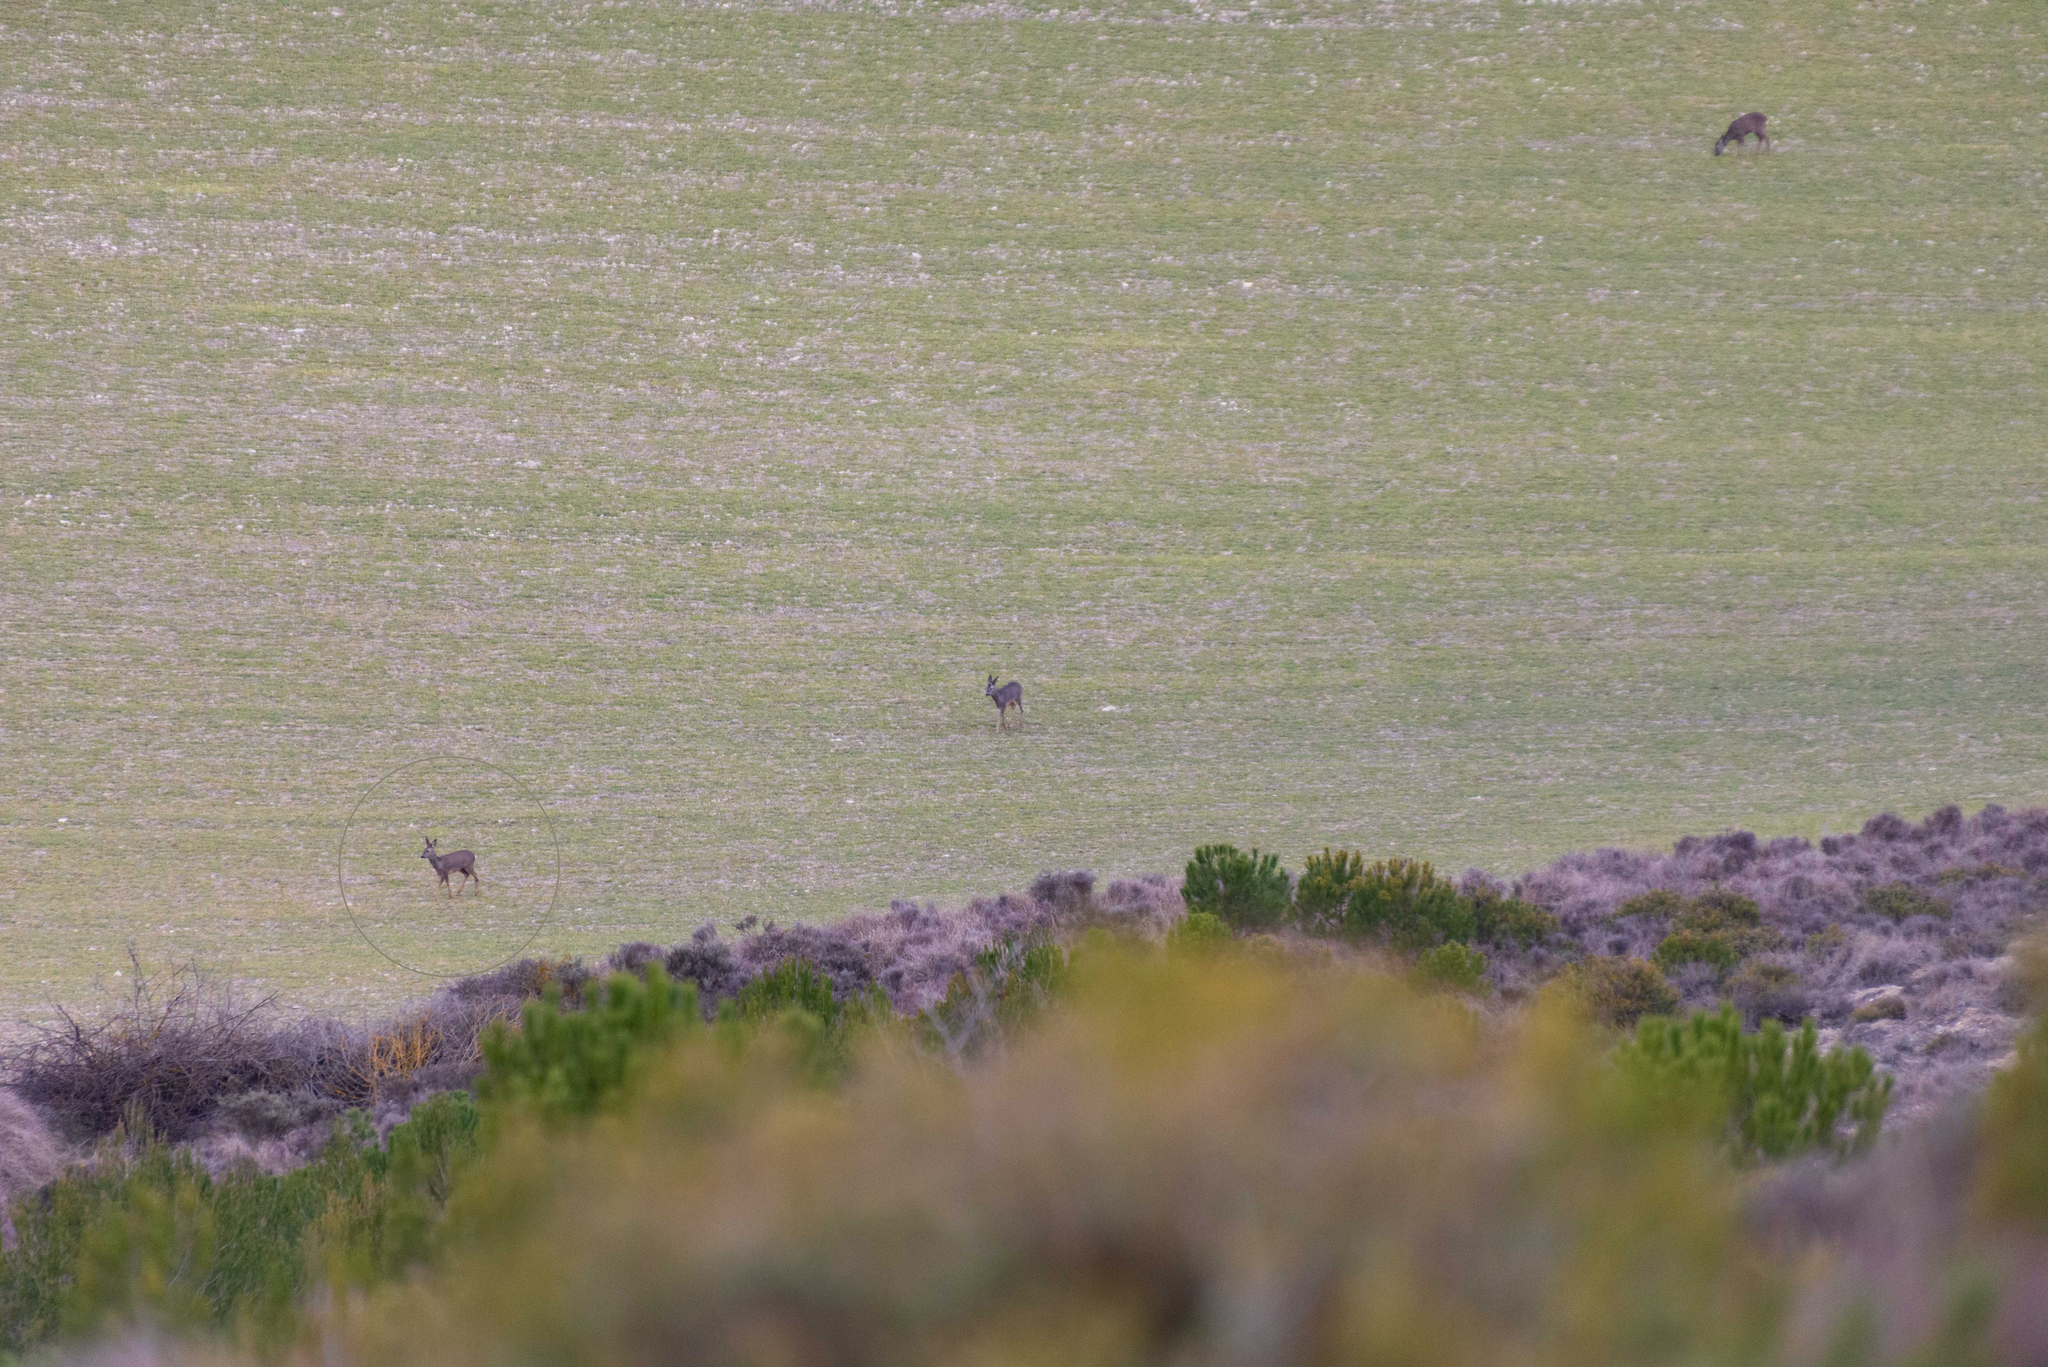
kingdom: Animalia
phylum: Chordata
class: Mammalia
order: Artiodactyla
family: Cervidae
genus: Capreolus
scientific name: Capreolus capreolus
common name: Western roe deer
